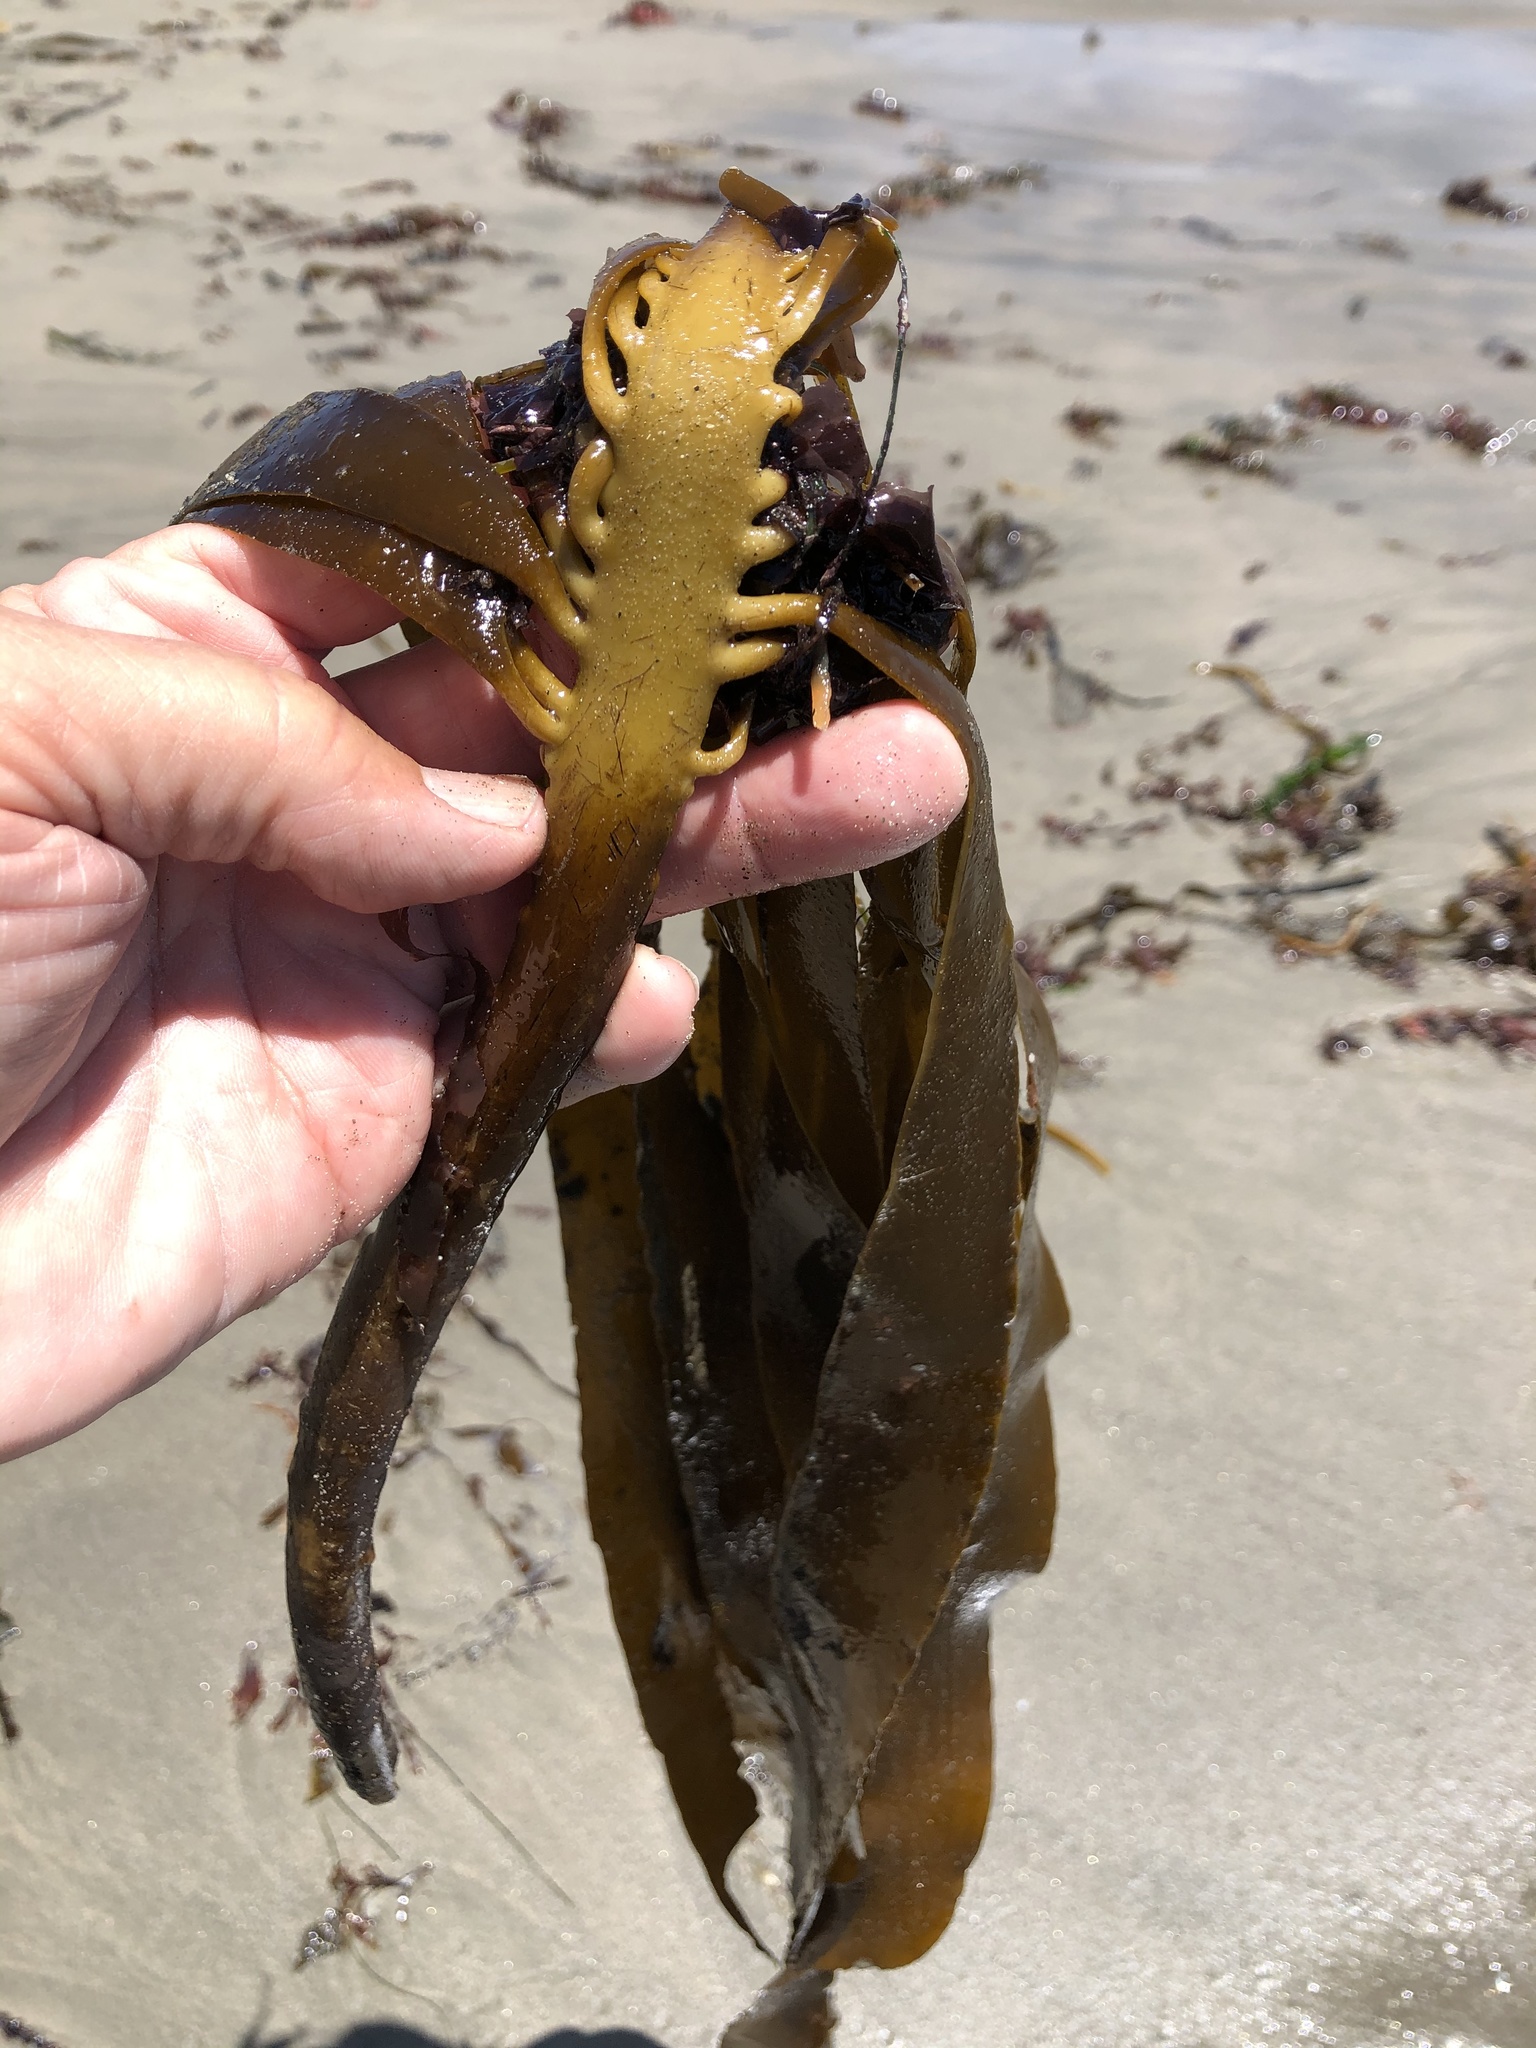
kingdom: Chromista
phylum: Ochrophyta
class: Phaeophyceae
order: Laminariales
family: Alariaceae
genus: Pterygophora
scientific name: Pterygophora californica
